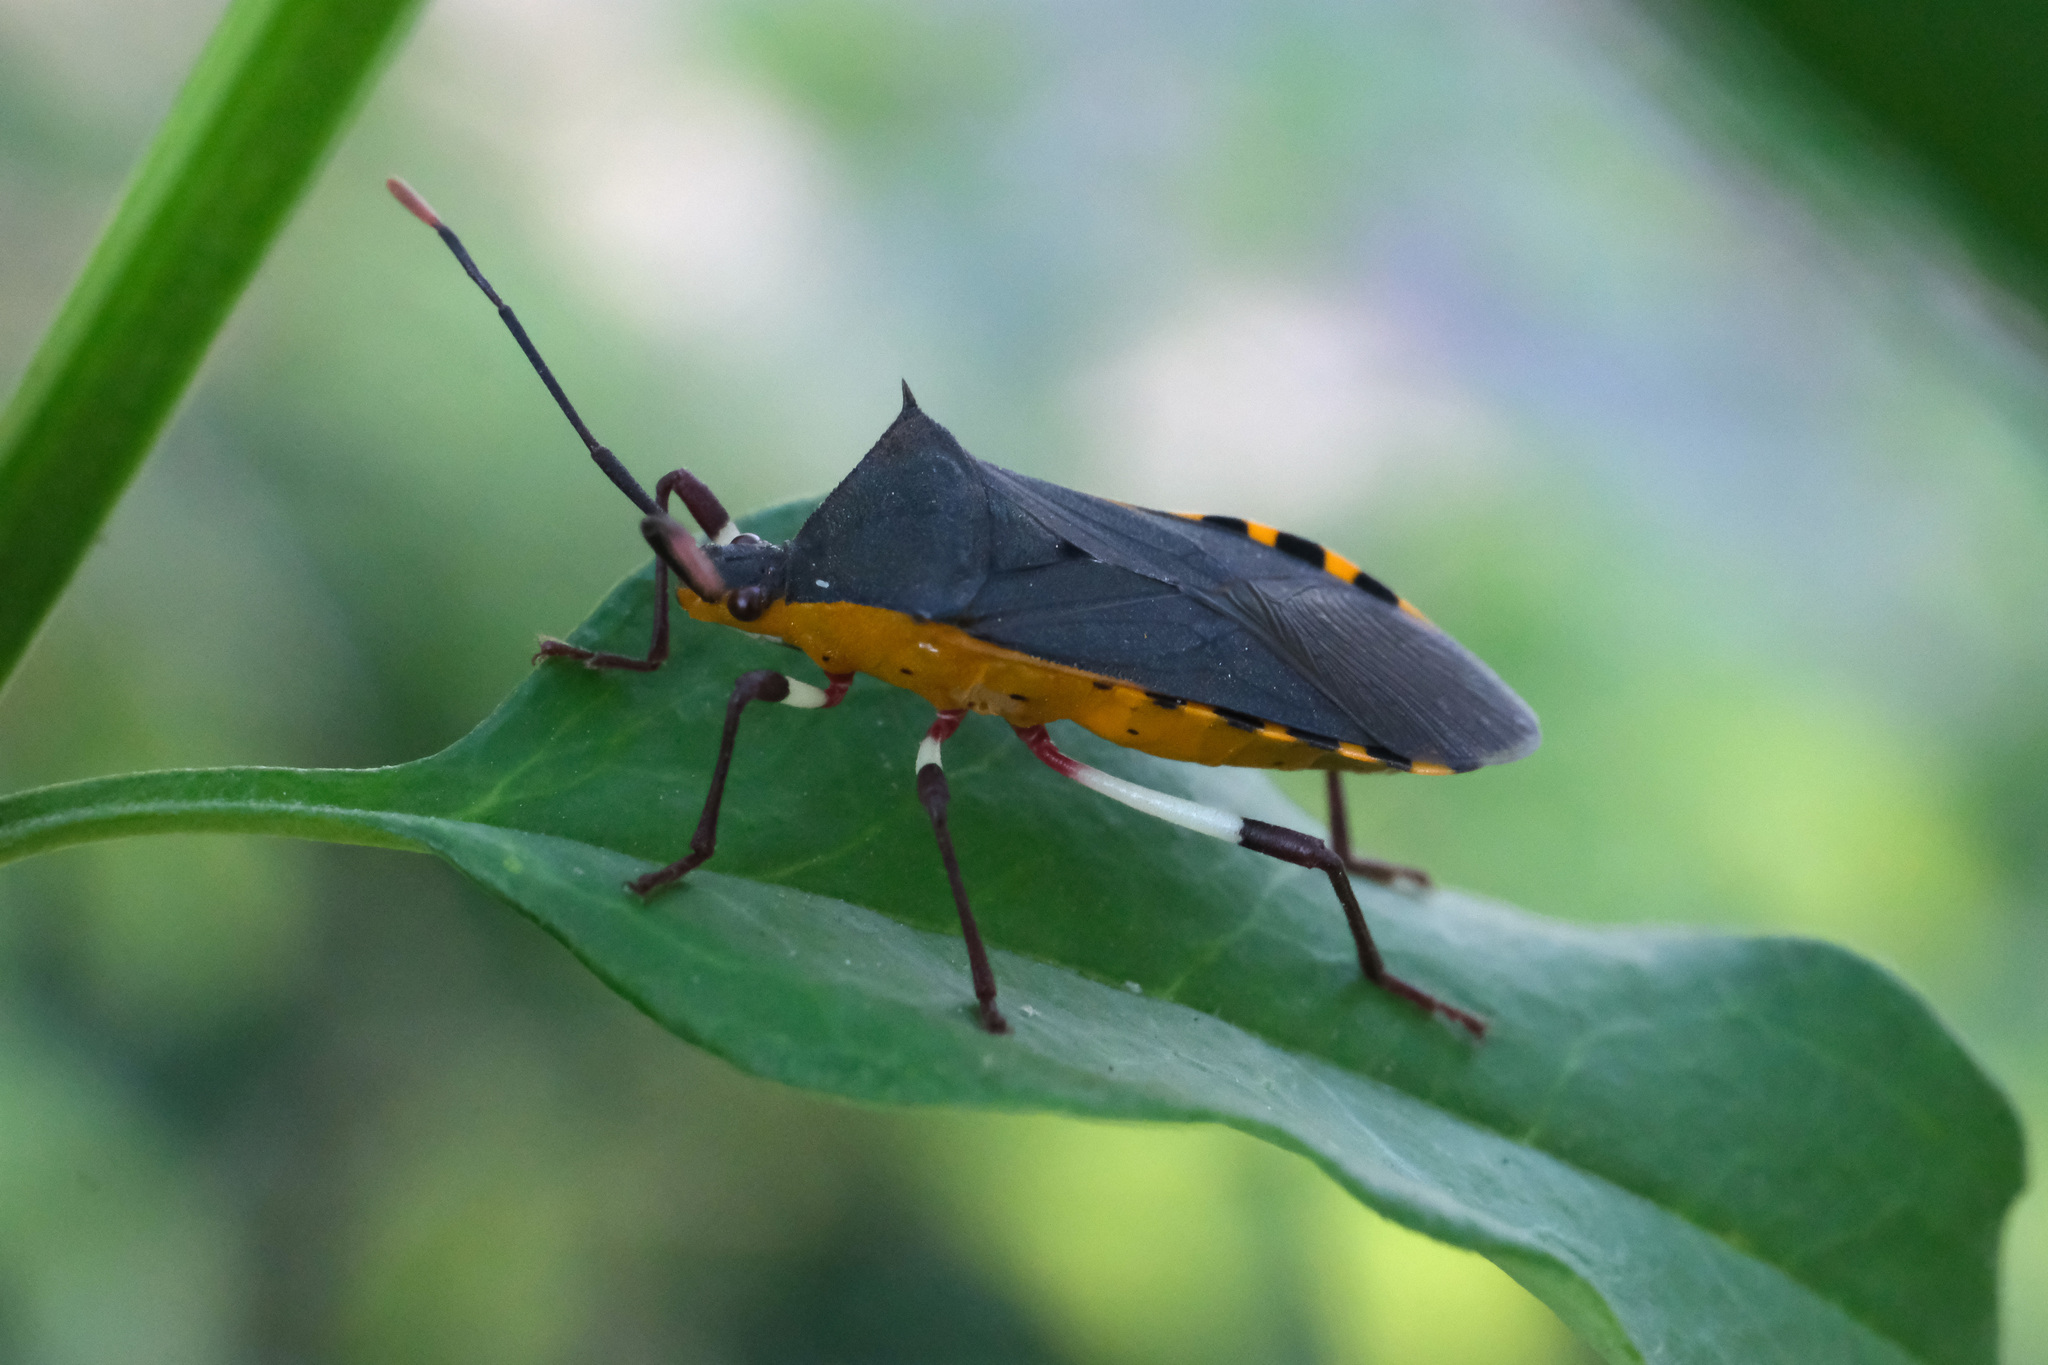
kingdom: Animalia
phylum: Arthropoda
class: Insecta
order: Hemiptera
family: Coreidae
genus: Plinachtus
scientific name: Plinachtus bicoloripes
